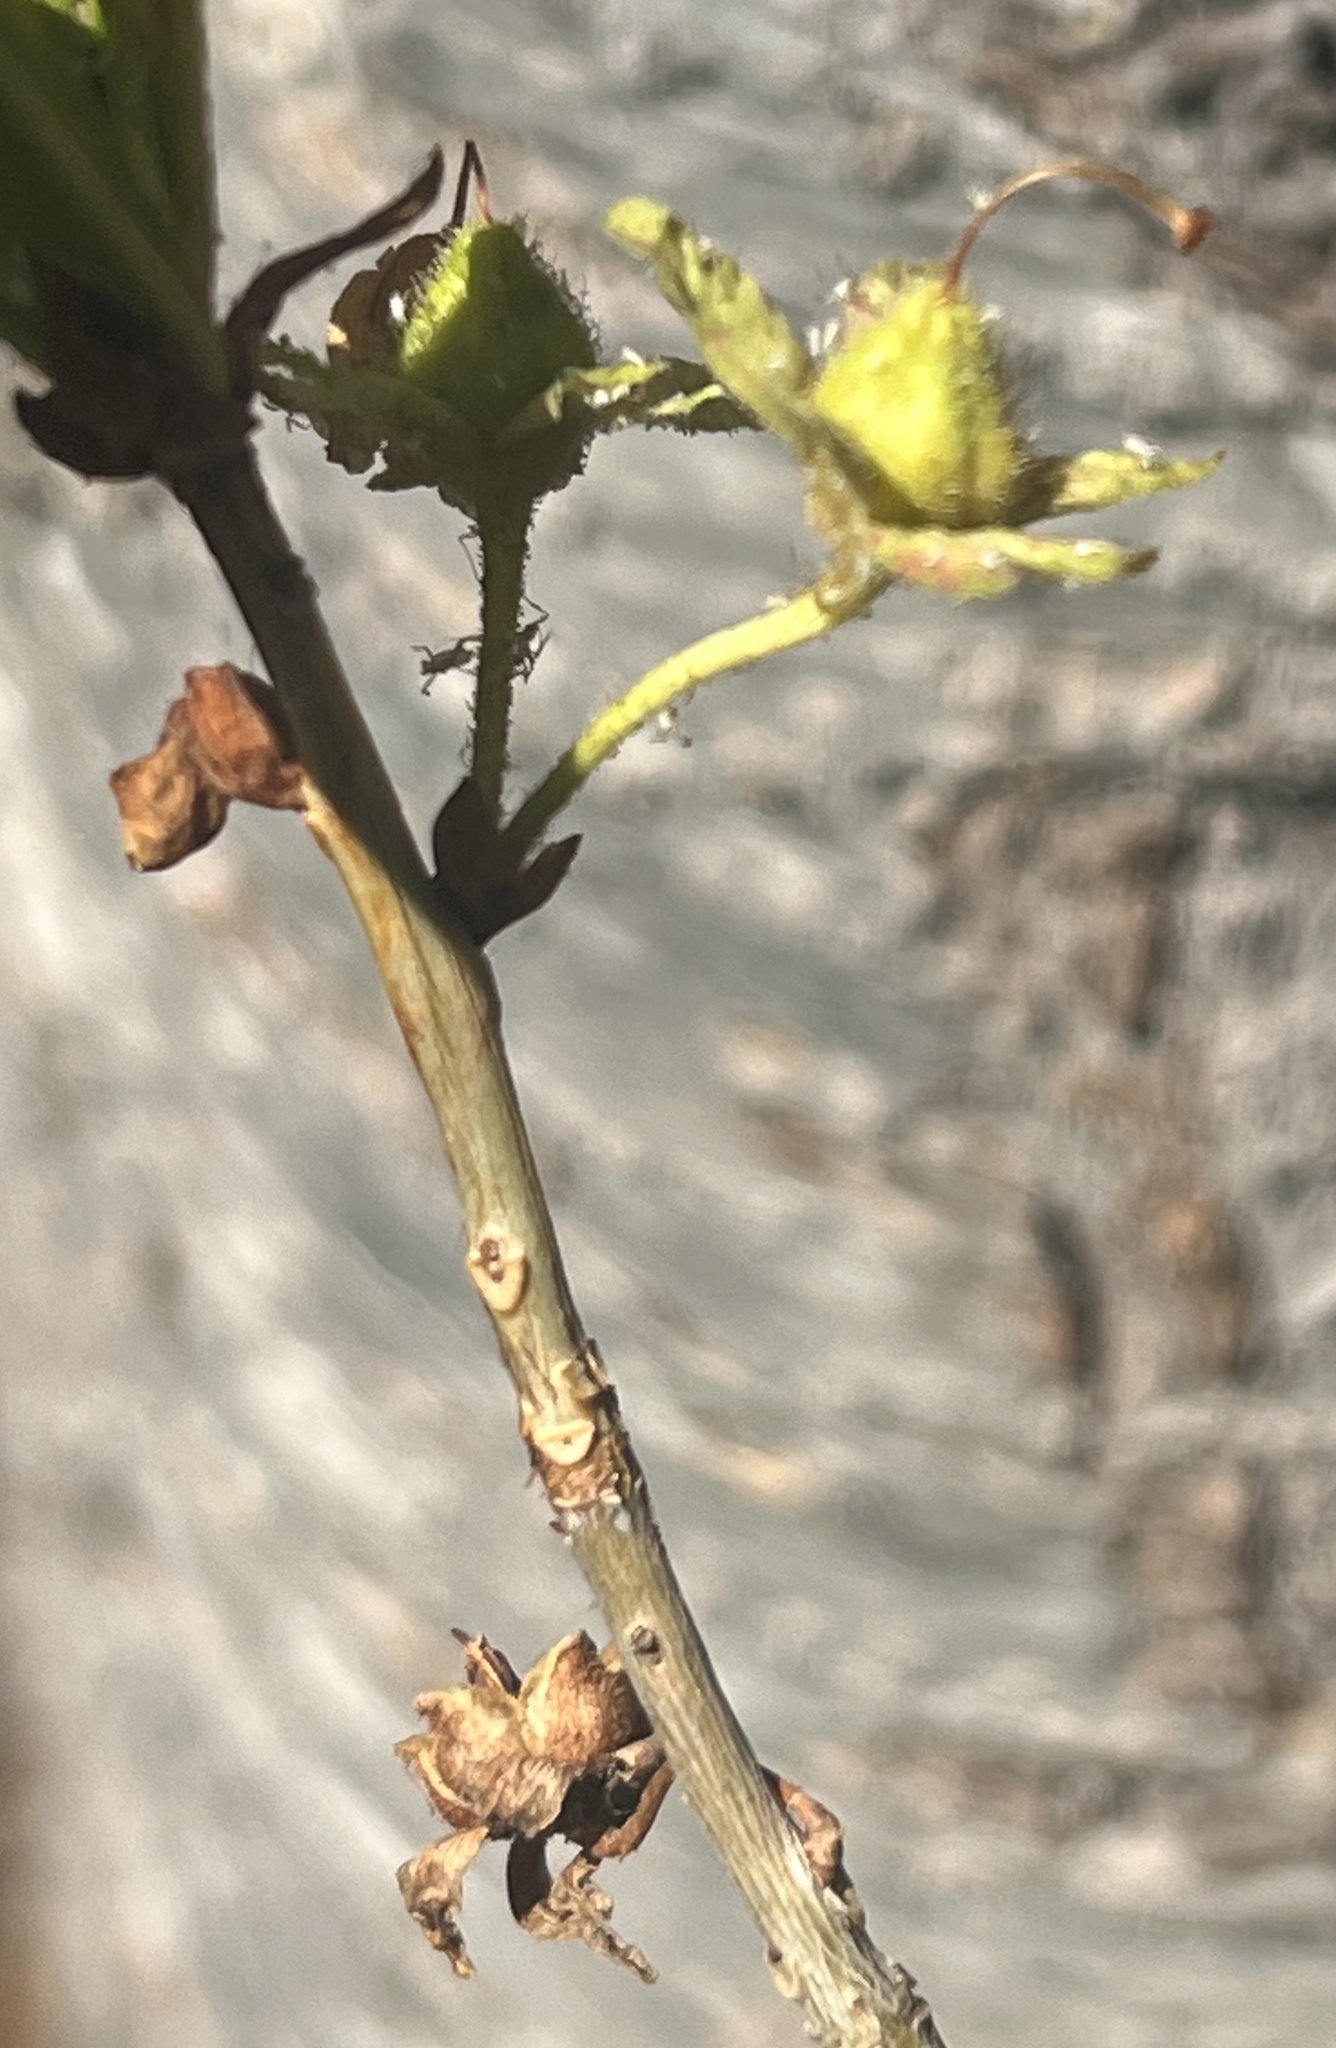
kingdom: Plantae
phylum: Tracheophyta
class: Magnoliopsida
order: Ericales
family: Ericaceae
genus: Rhododendron
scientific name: Rhododendron albiflorum
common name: White rhododendron
